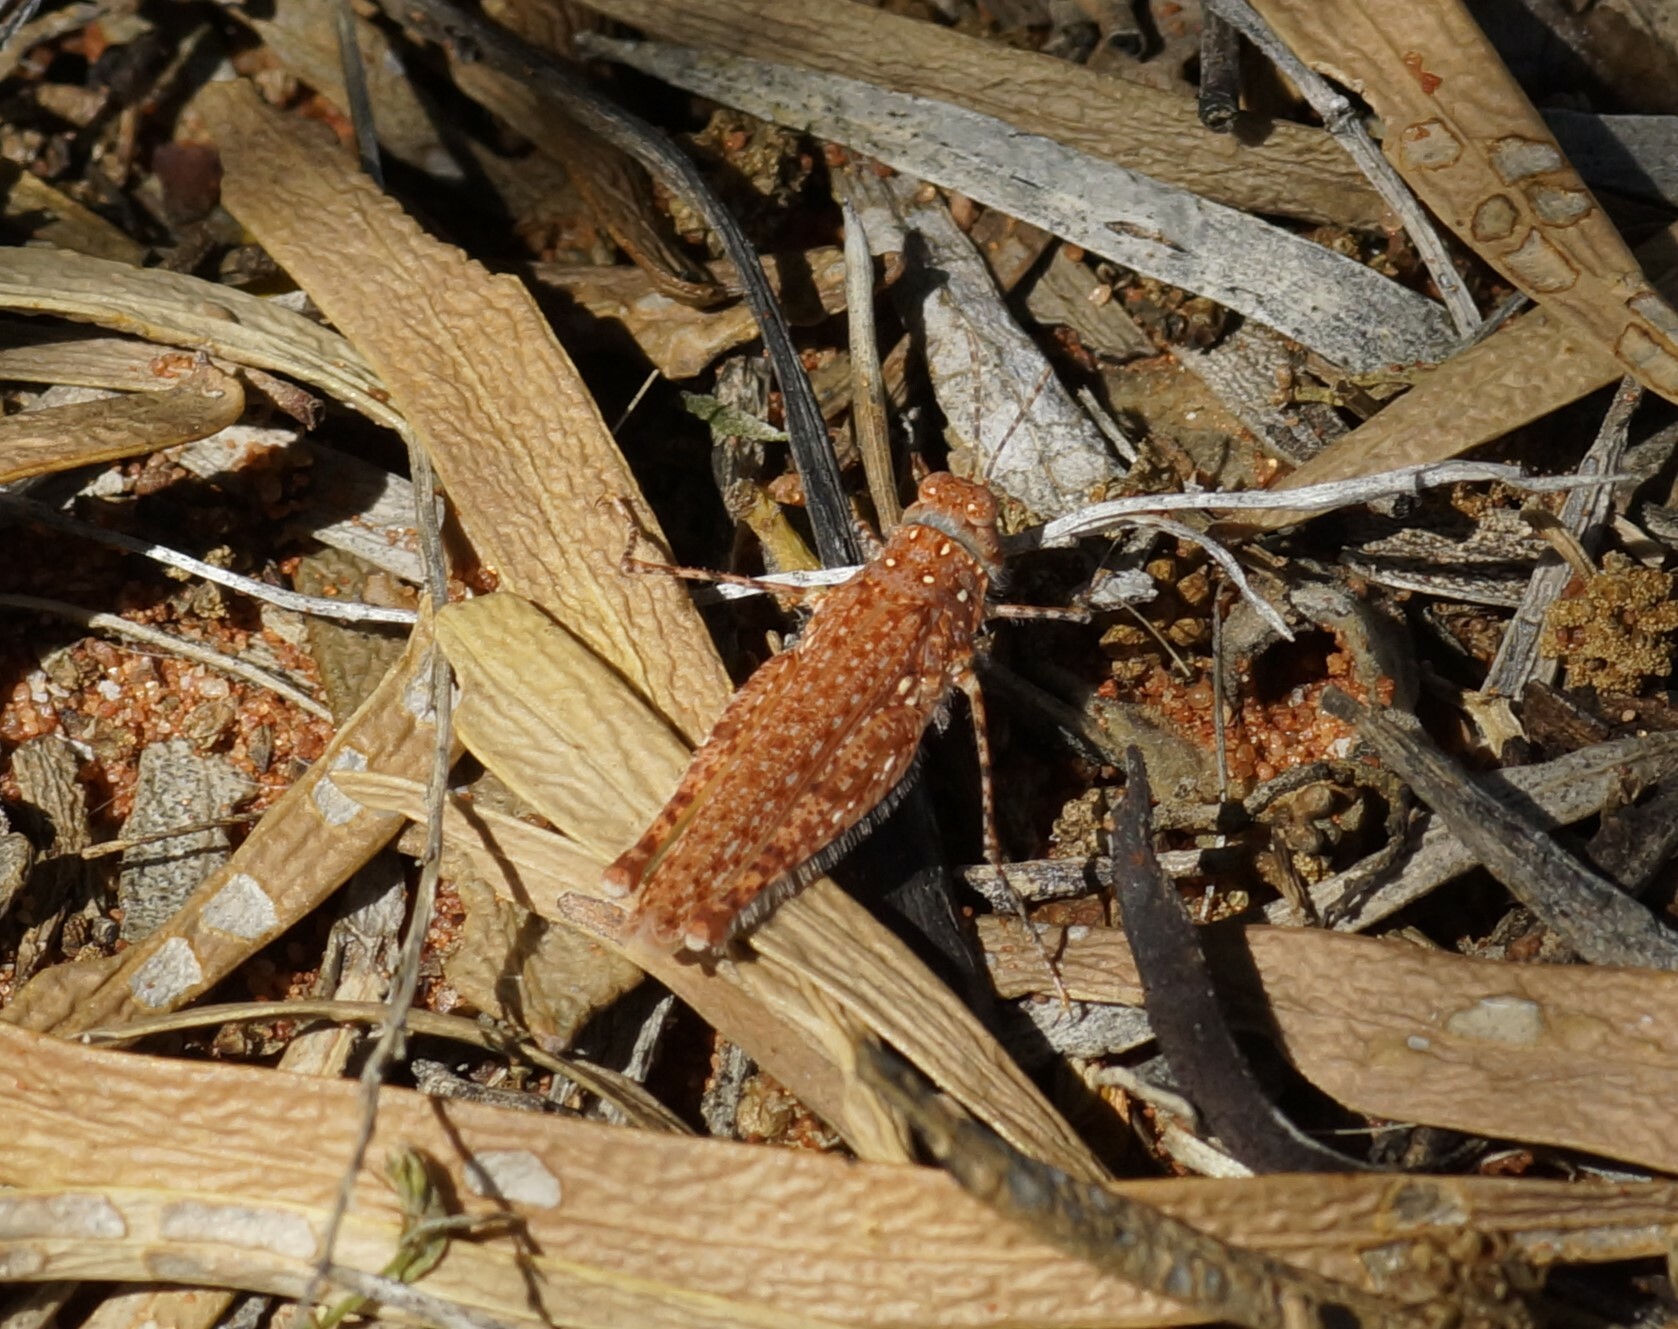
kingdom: Animalia
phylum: Arthropoda
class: Insecta
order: Orthoptera
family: Acrididae
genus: Urnisiella
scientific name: Urnisiella rubropunctata
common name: Long-legged sandhopper
